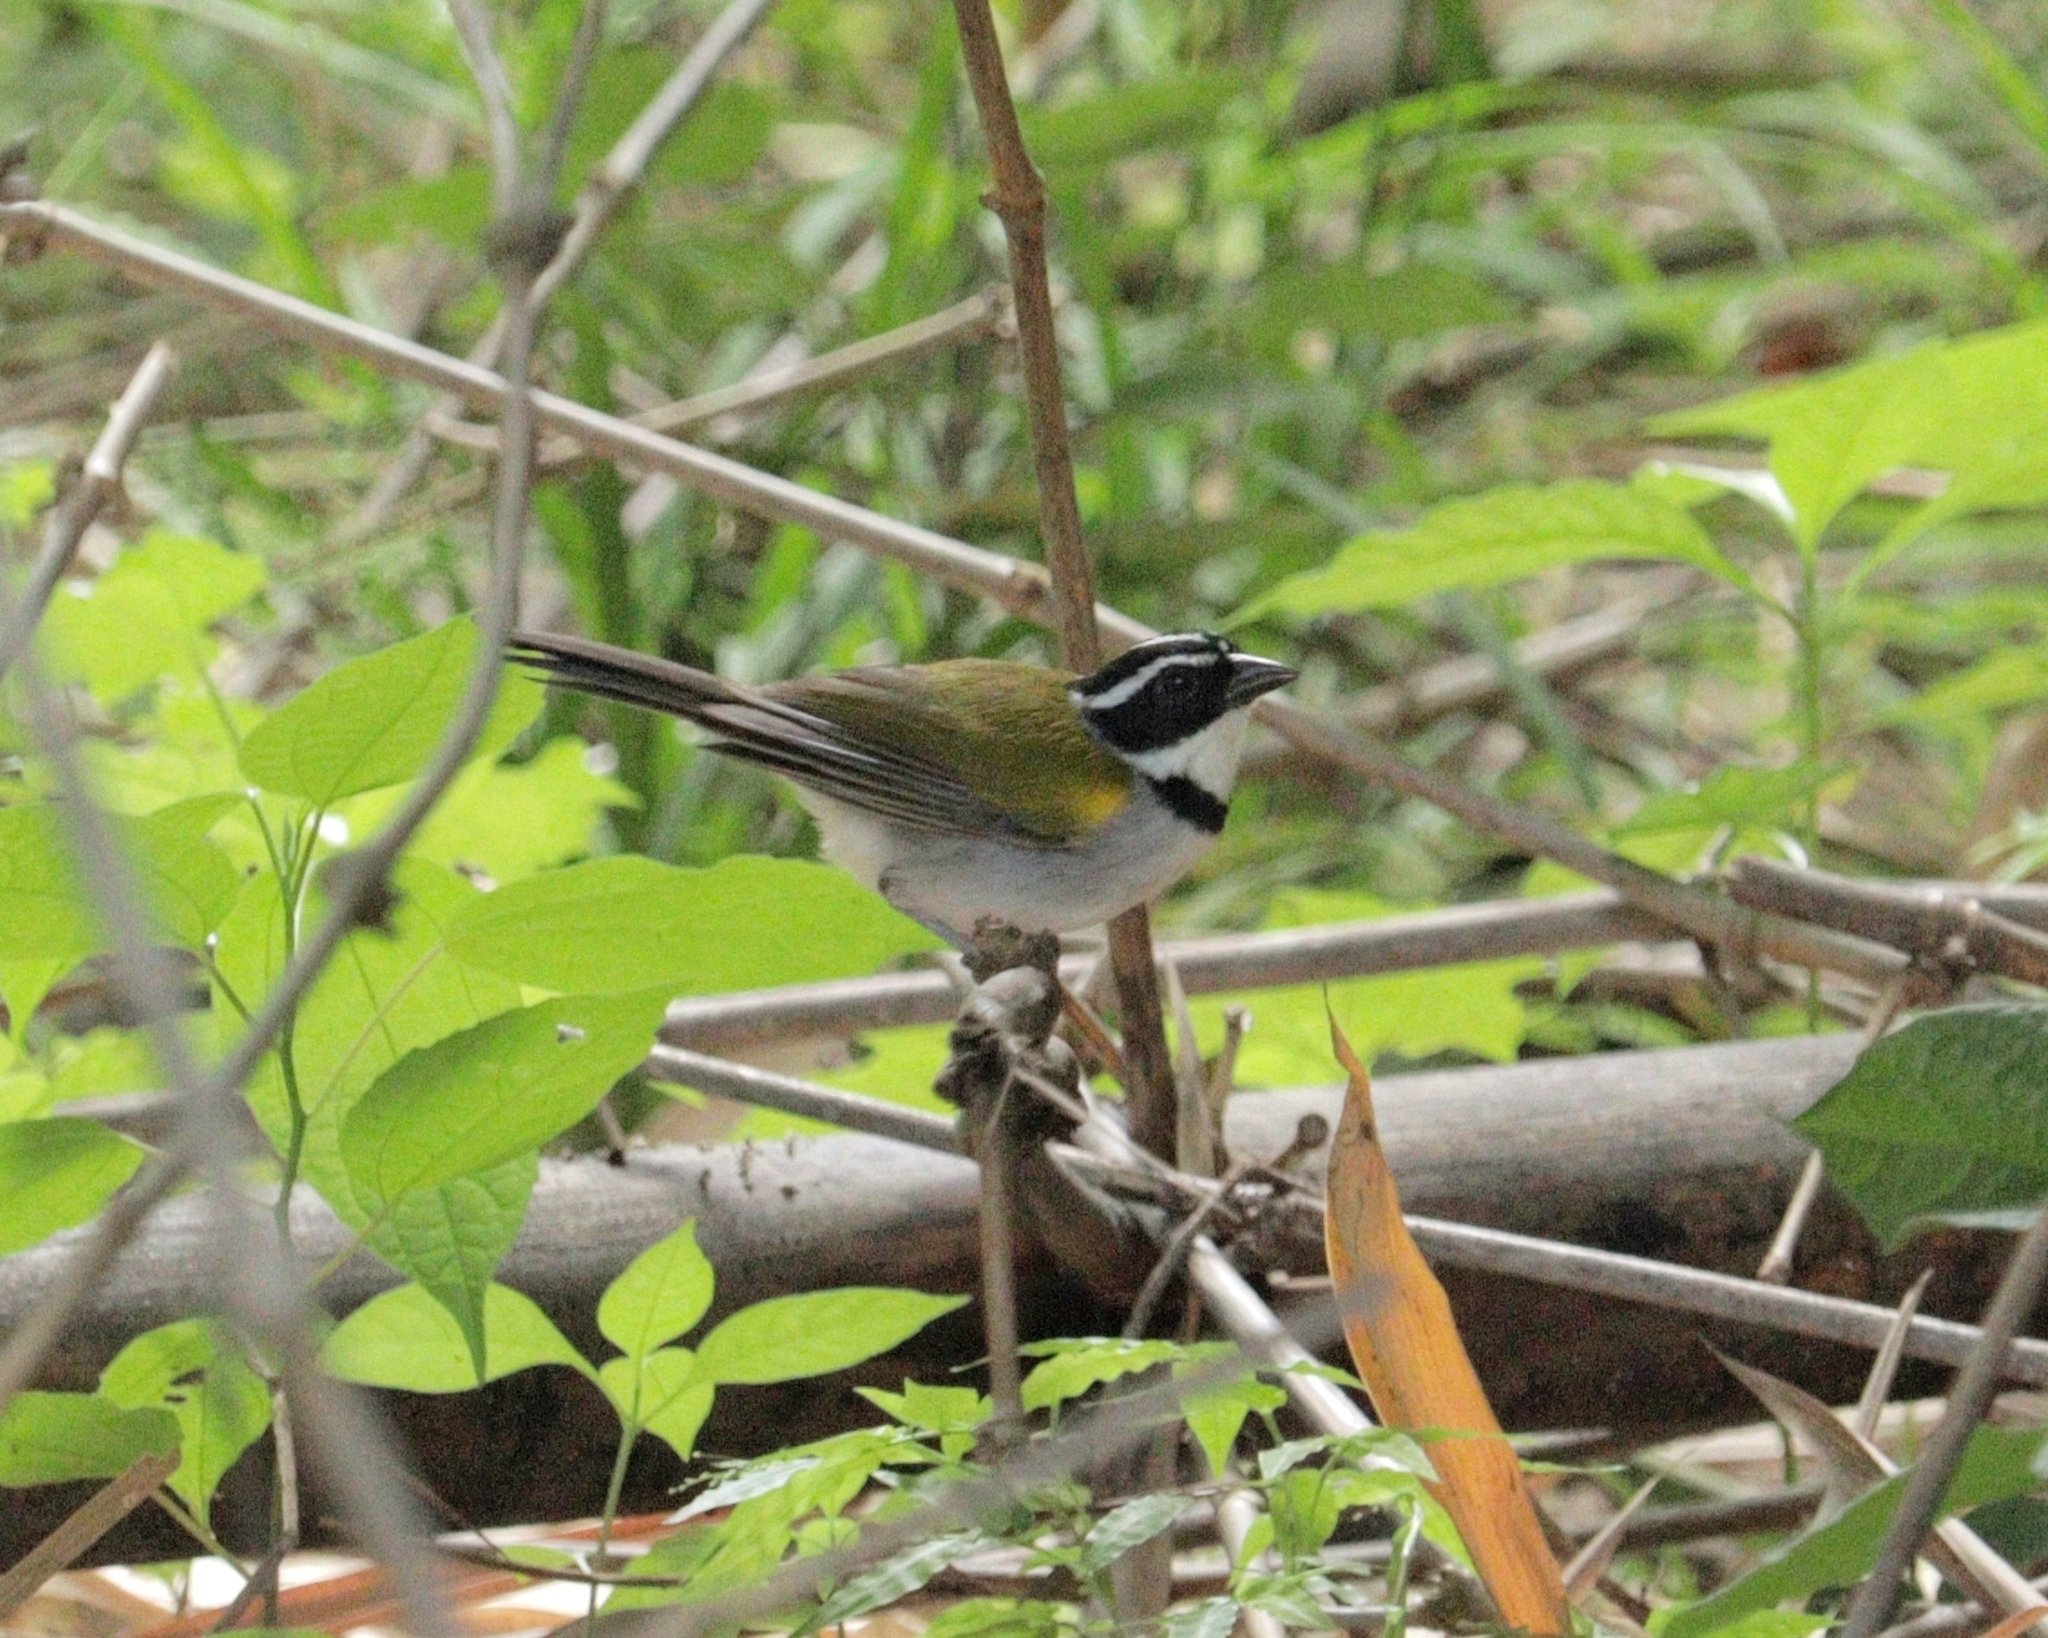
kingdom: Animalia
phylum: Chordata
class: Aves
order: Passeriformes
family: Passerellidae
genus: Arremon
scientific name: Arremon taciturnus
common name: Pectoral sparrow
